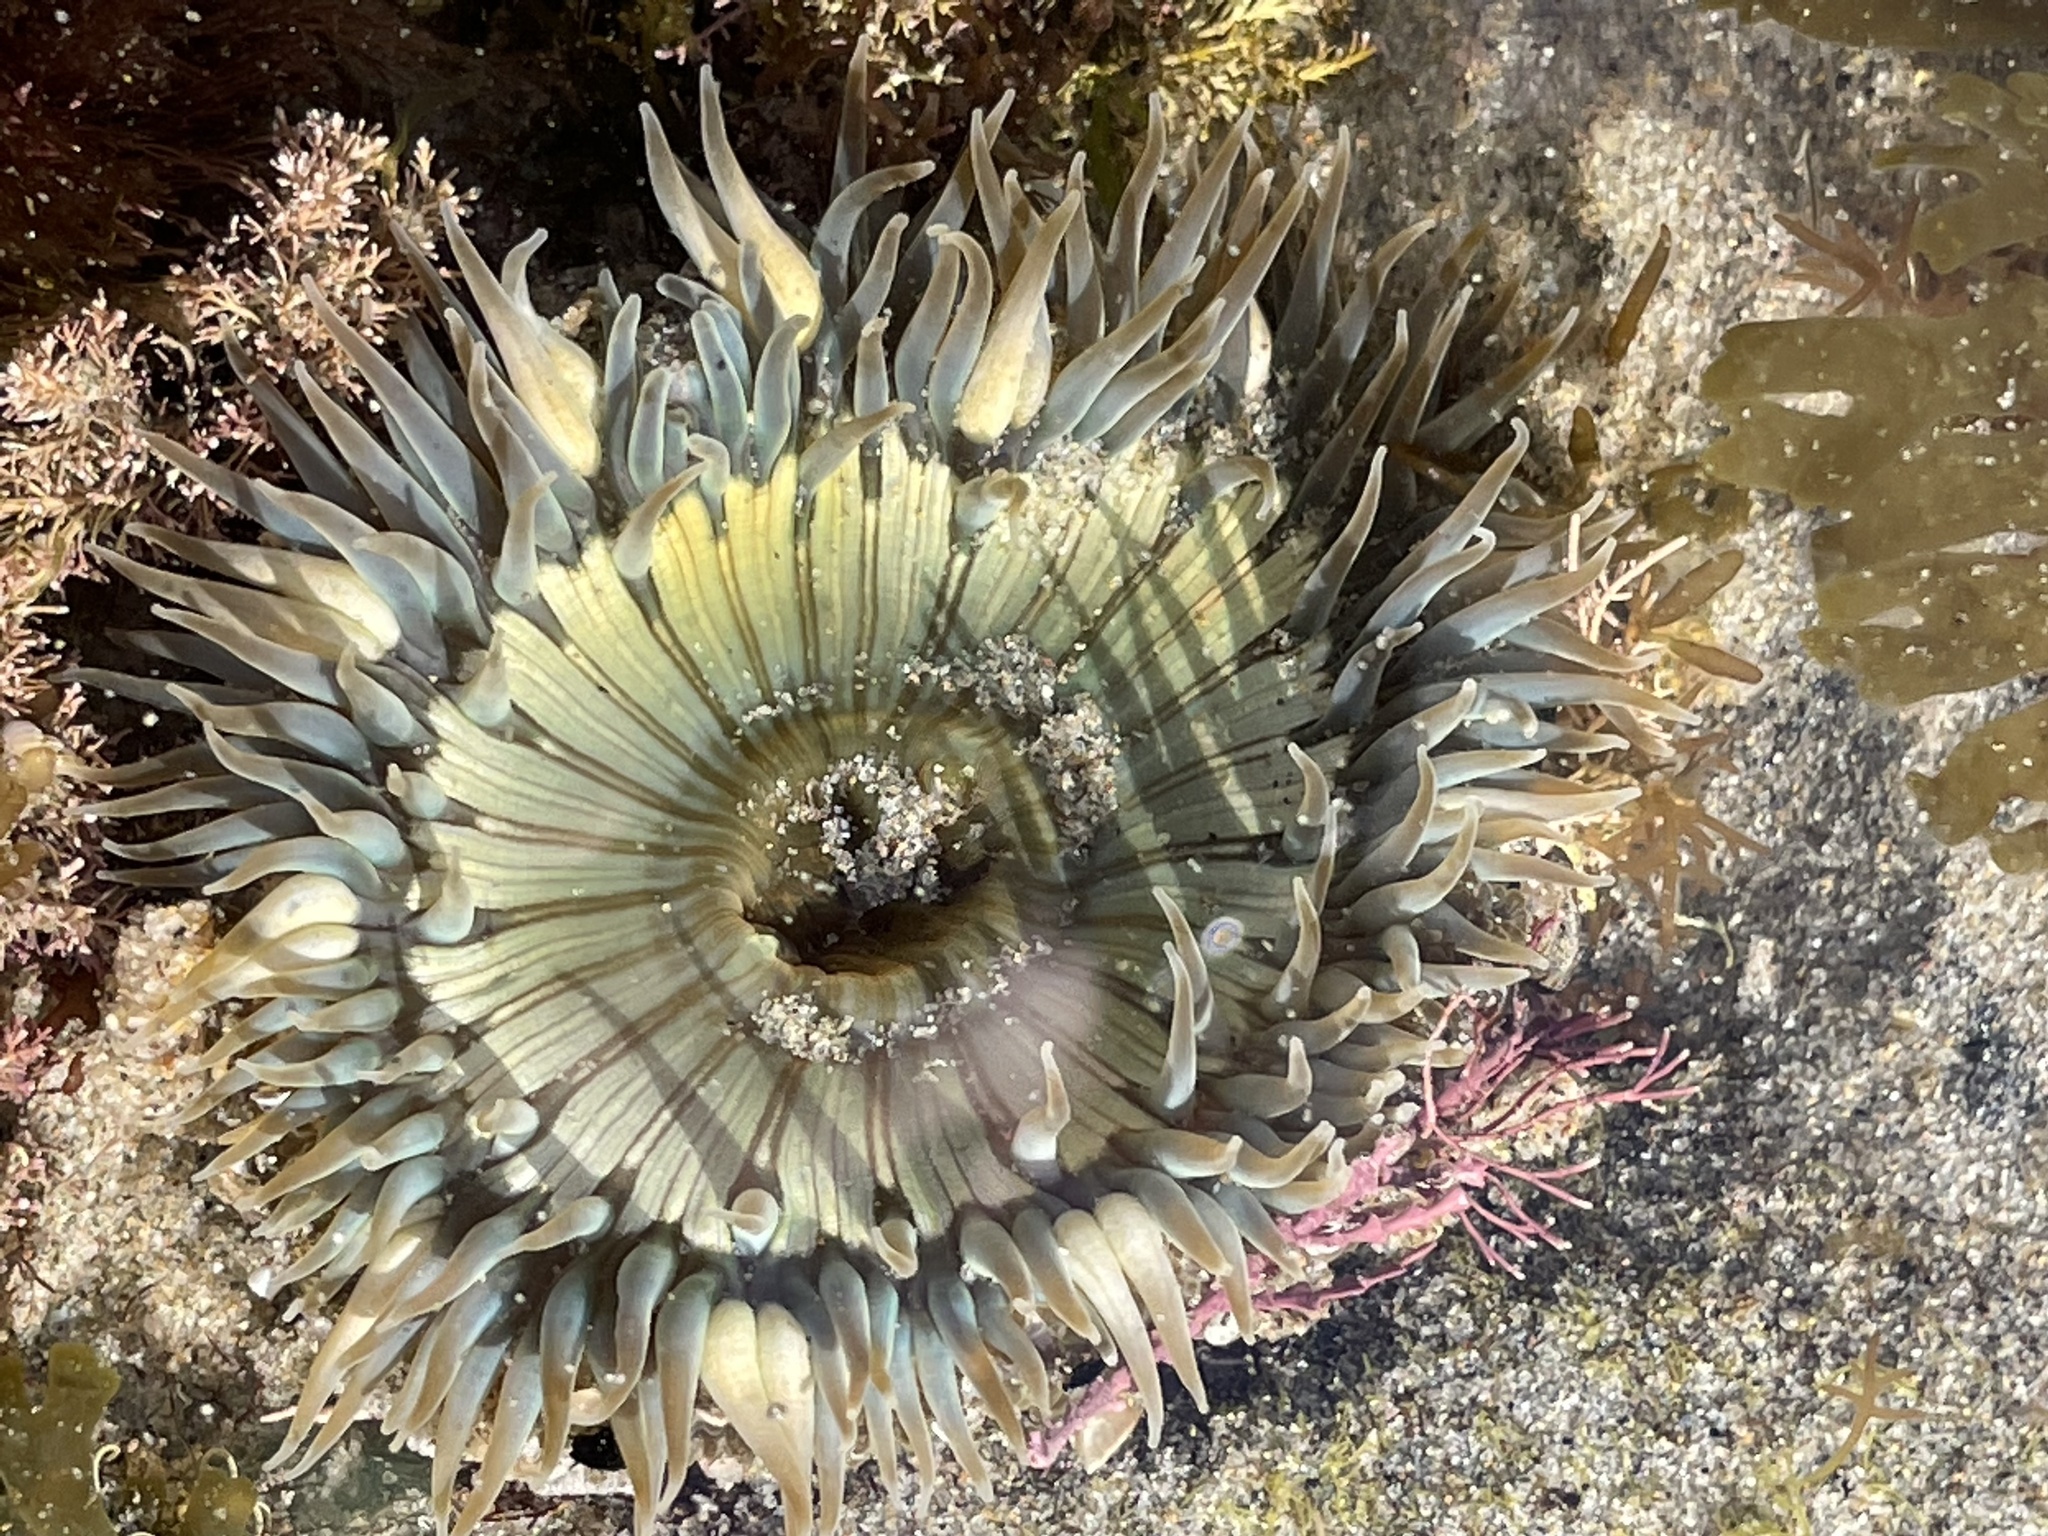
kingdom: Animalia
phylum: Cnidaria
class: Anthozoa
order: Actiniaria
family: Actiniidae
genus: Anthopleura
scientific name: Anthopleura sola
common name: Sun anemone
